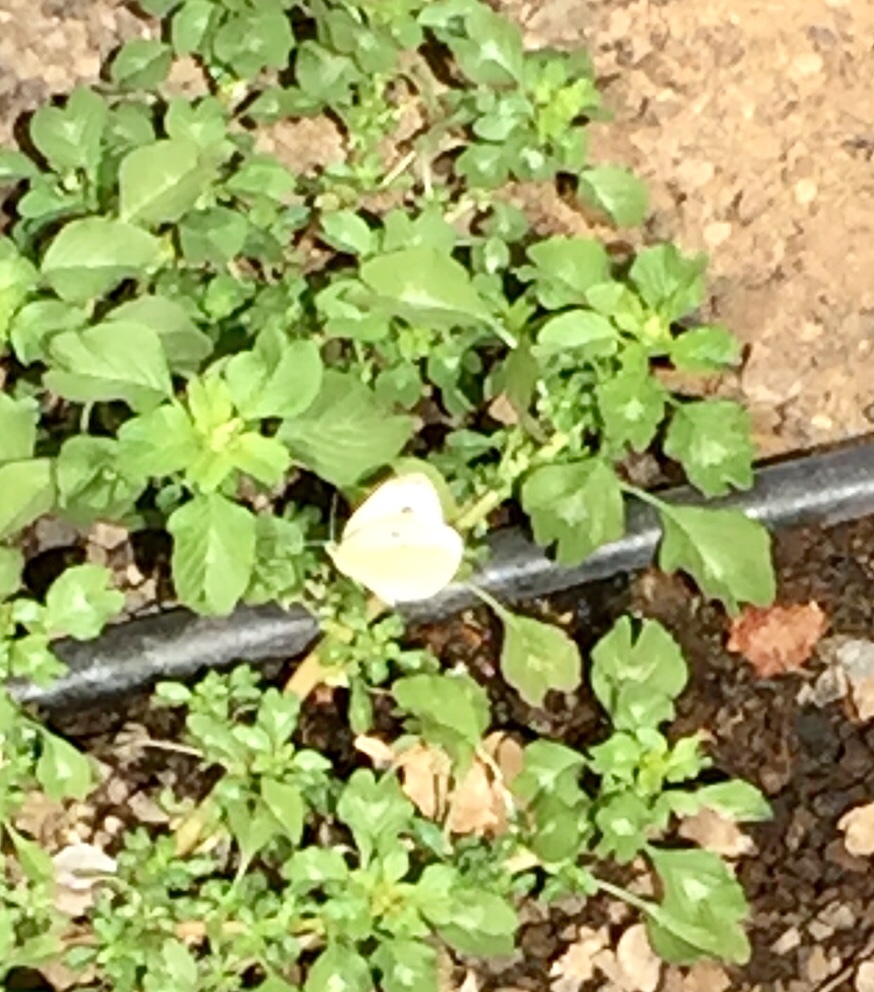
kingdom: Animalia
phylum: Arthropoda
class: Insecta
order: Lepidoptera
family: Pieridae
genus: Pieris
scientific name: Pieris rapae
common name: Small white
